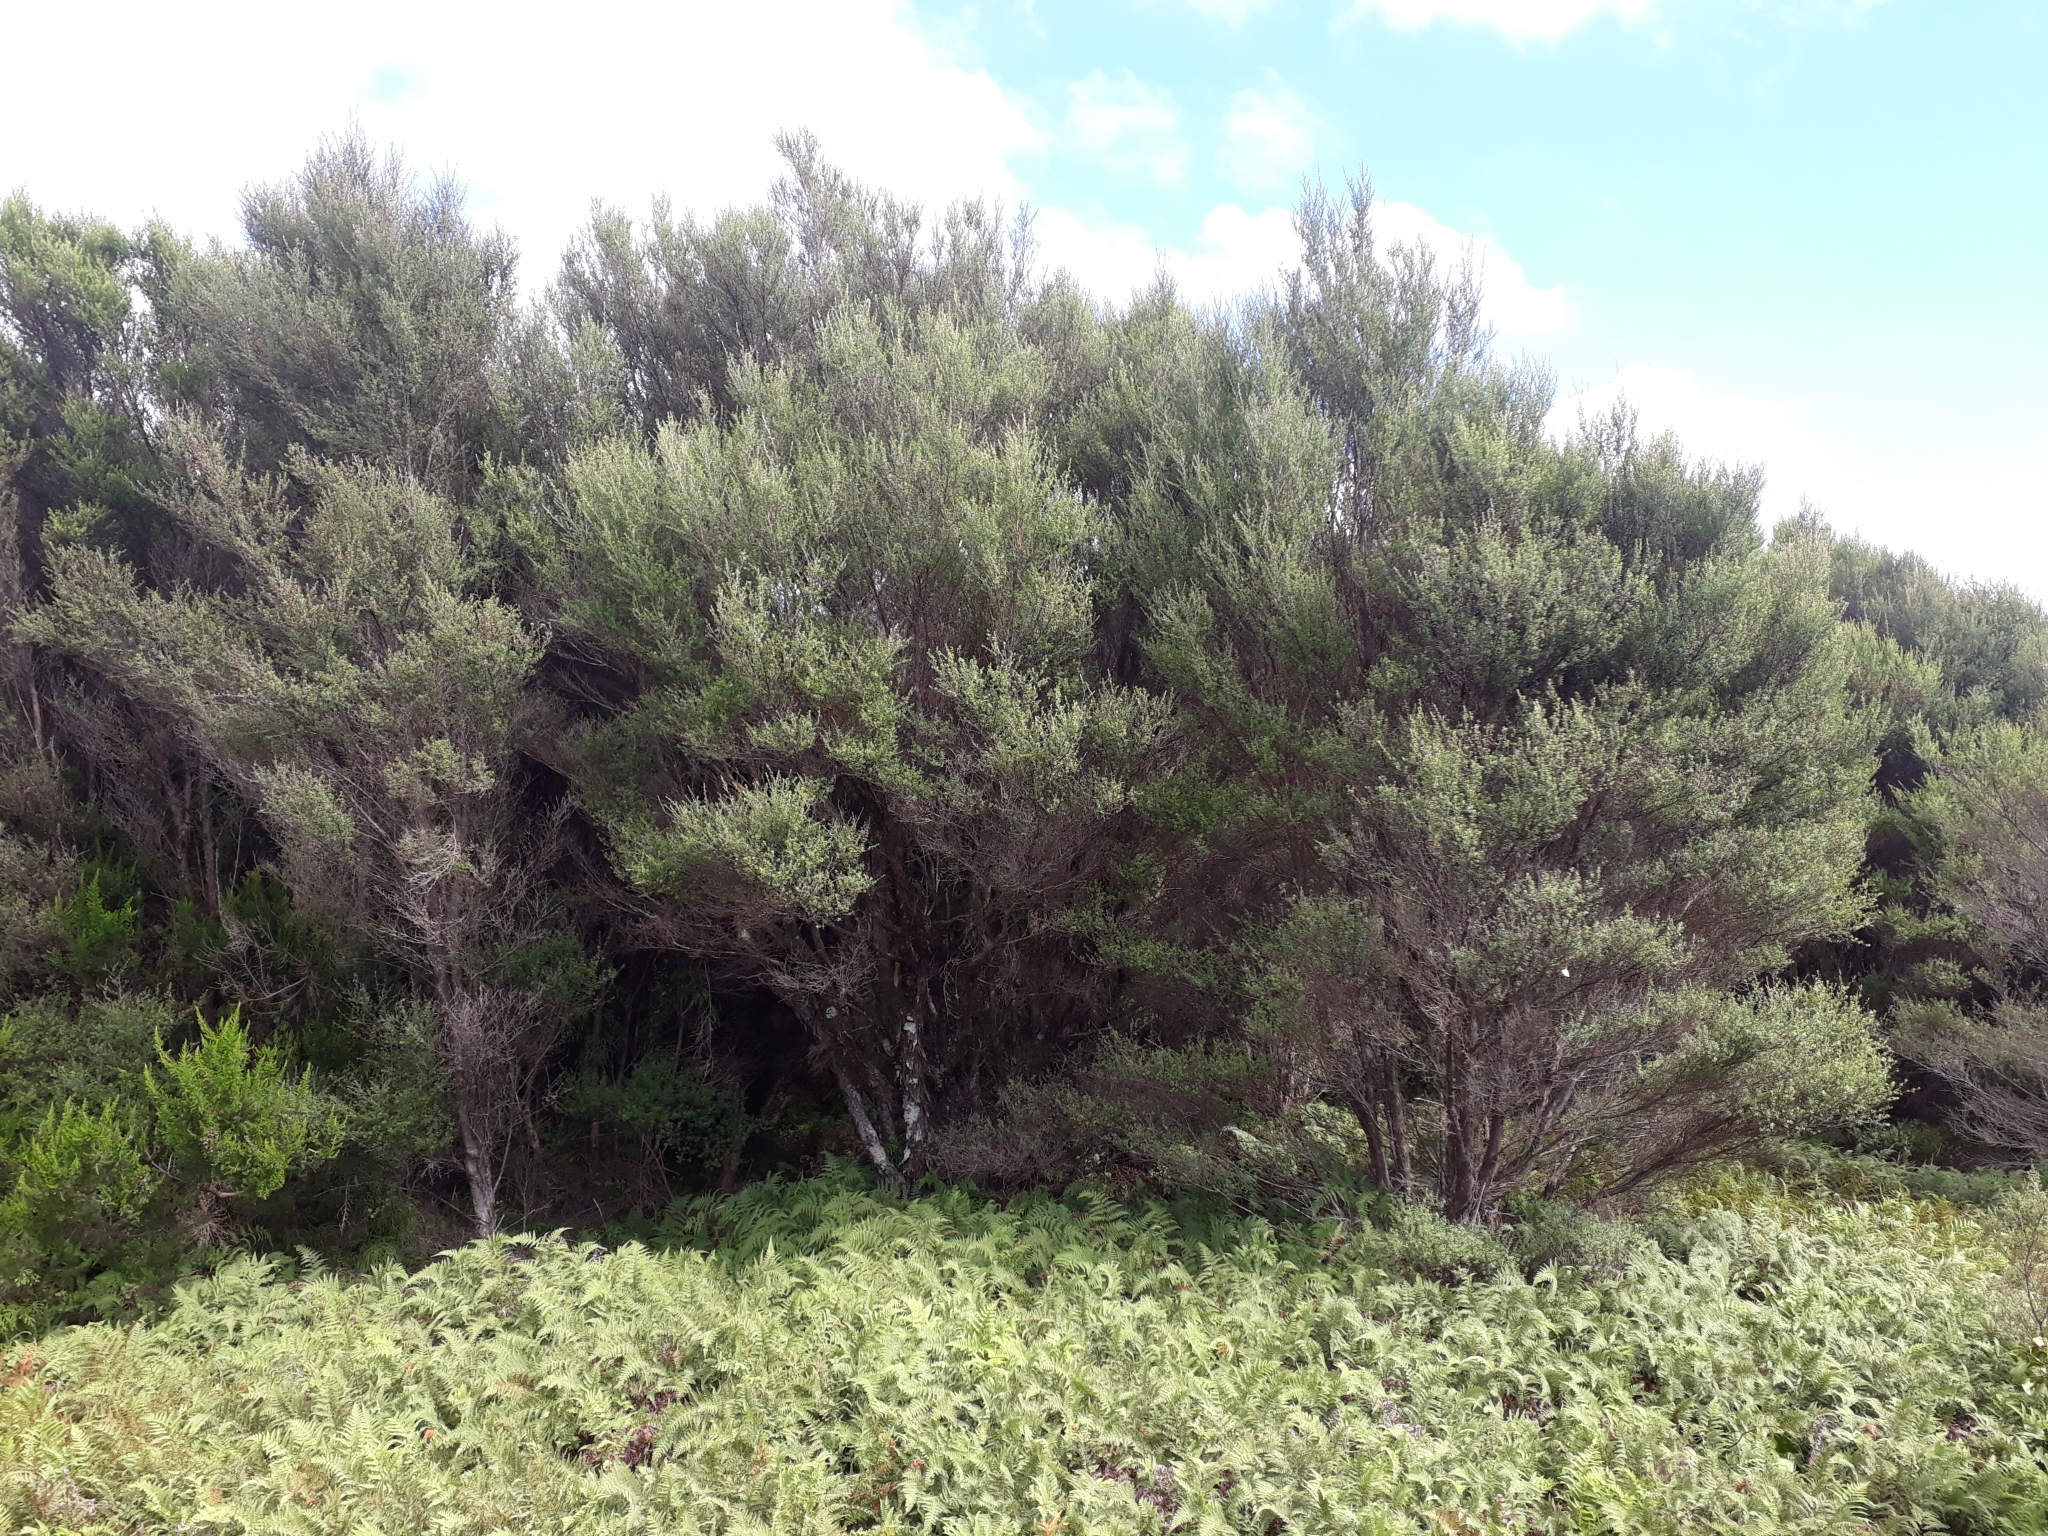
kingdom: Plantae
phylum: Tracheophyta
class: Magnoliopsida
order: Myrtales
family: Myrtaceae
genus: Leptospermum
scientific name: Leptospermum scoparium
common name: Broom tea-tree
